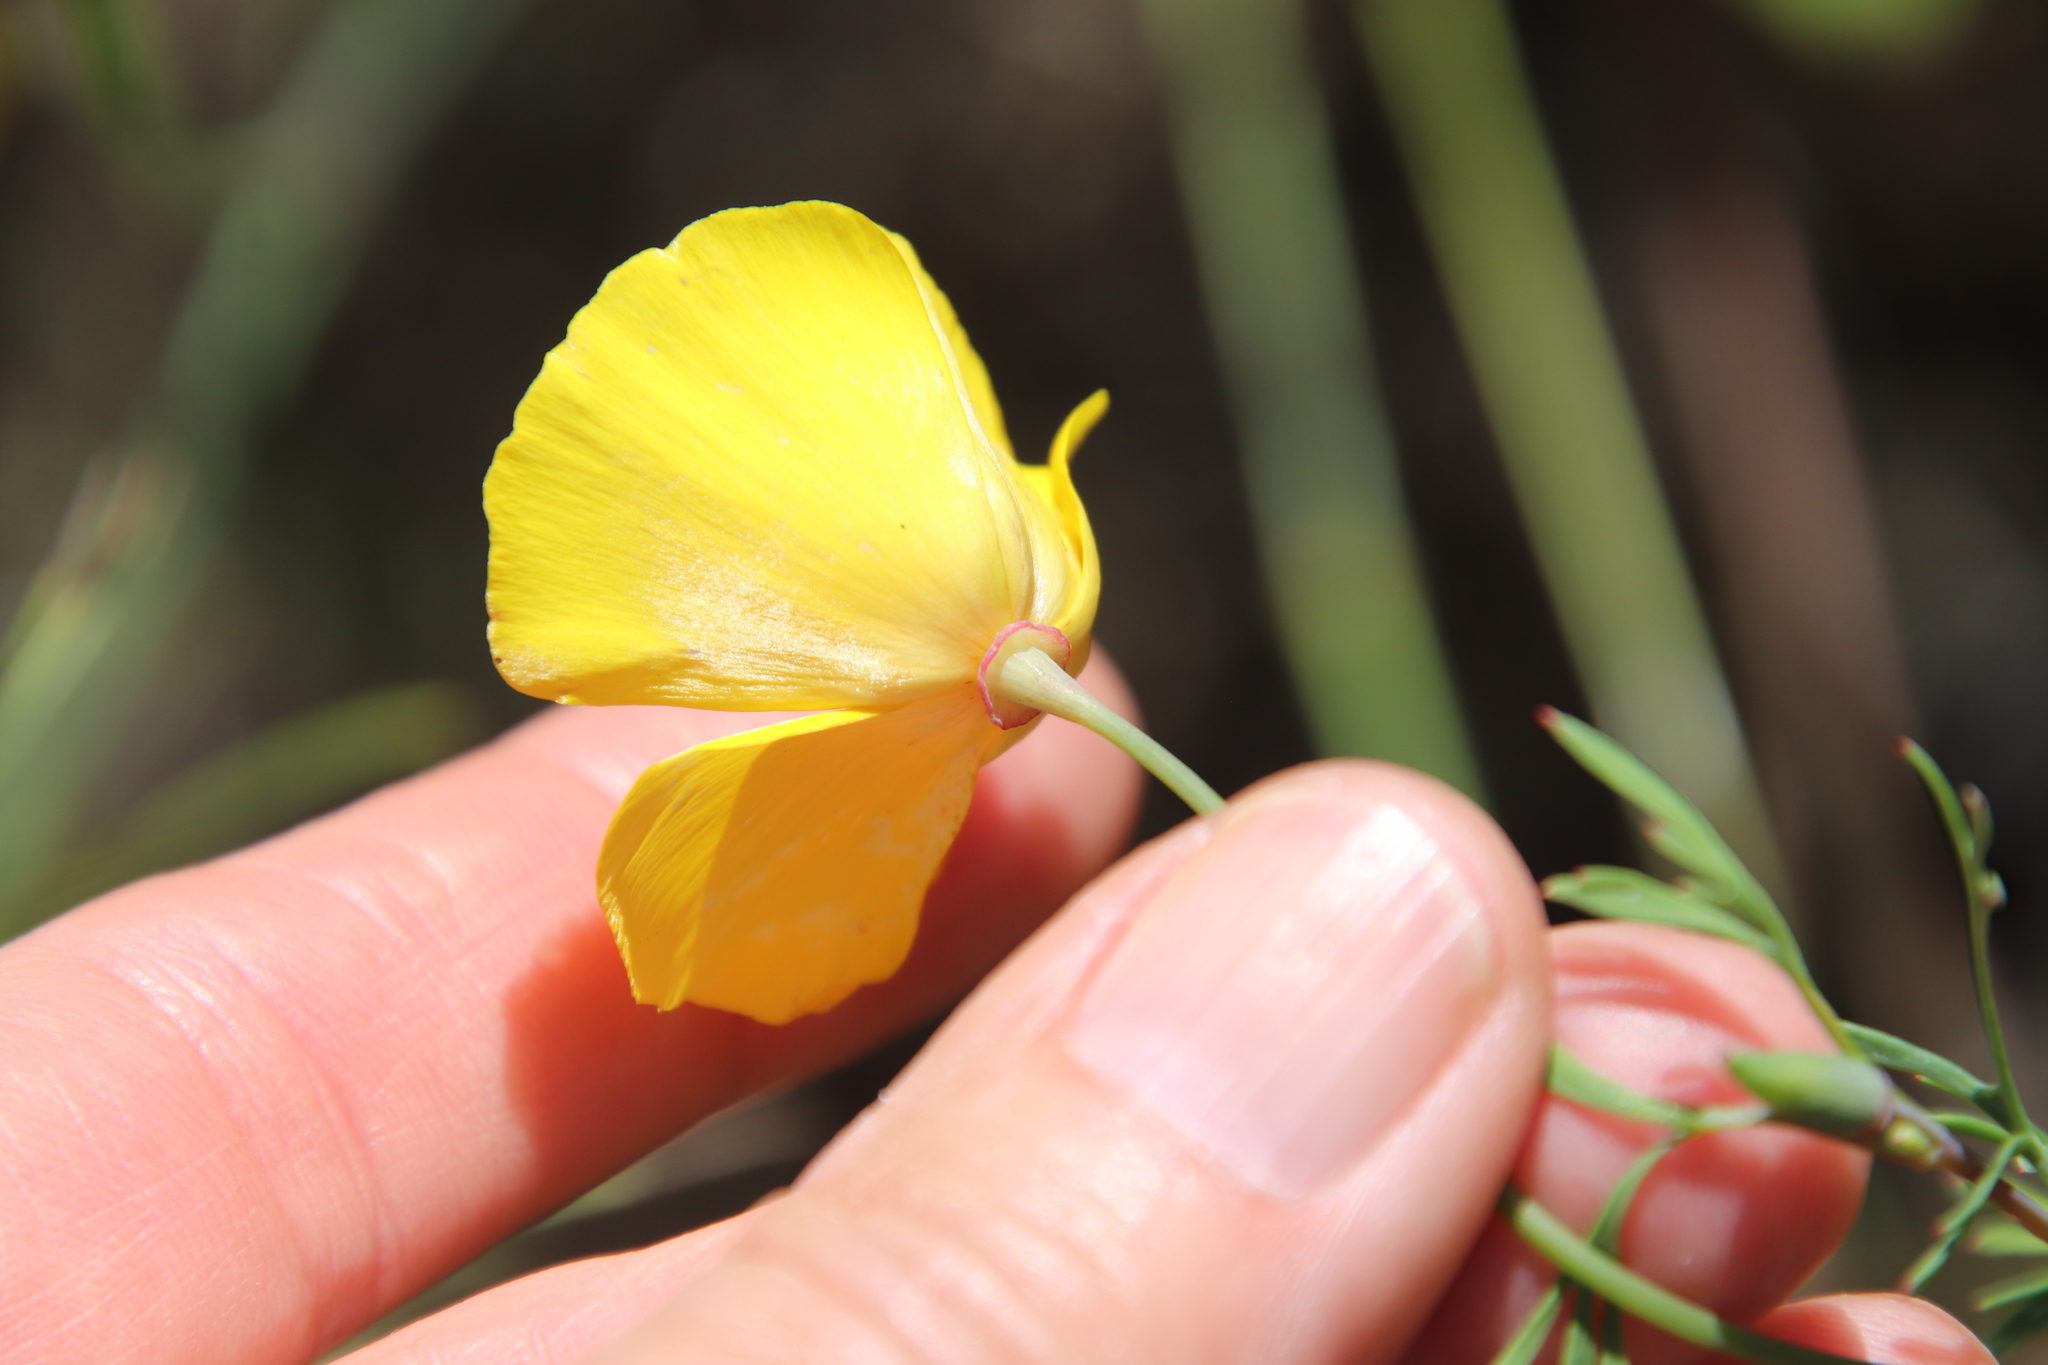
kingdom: Plantae
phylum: Tracheophyta
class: Magnoliopsida
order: Ranunculales
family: Papaveraceae
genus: Eschscholzia
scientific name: Eschscholzia californica
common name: California poppy
